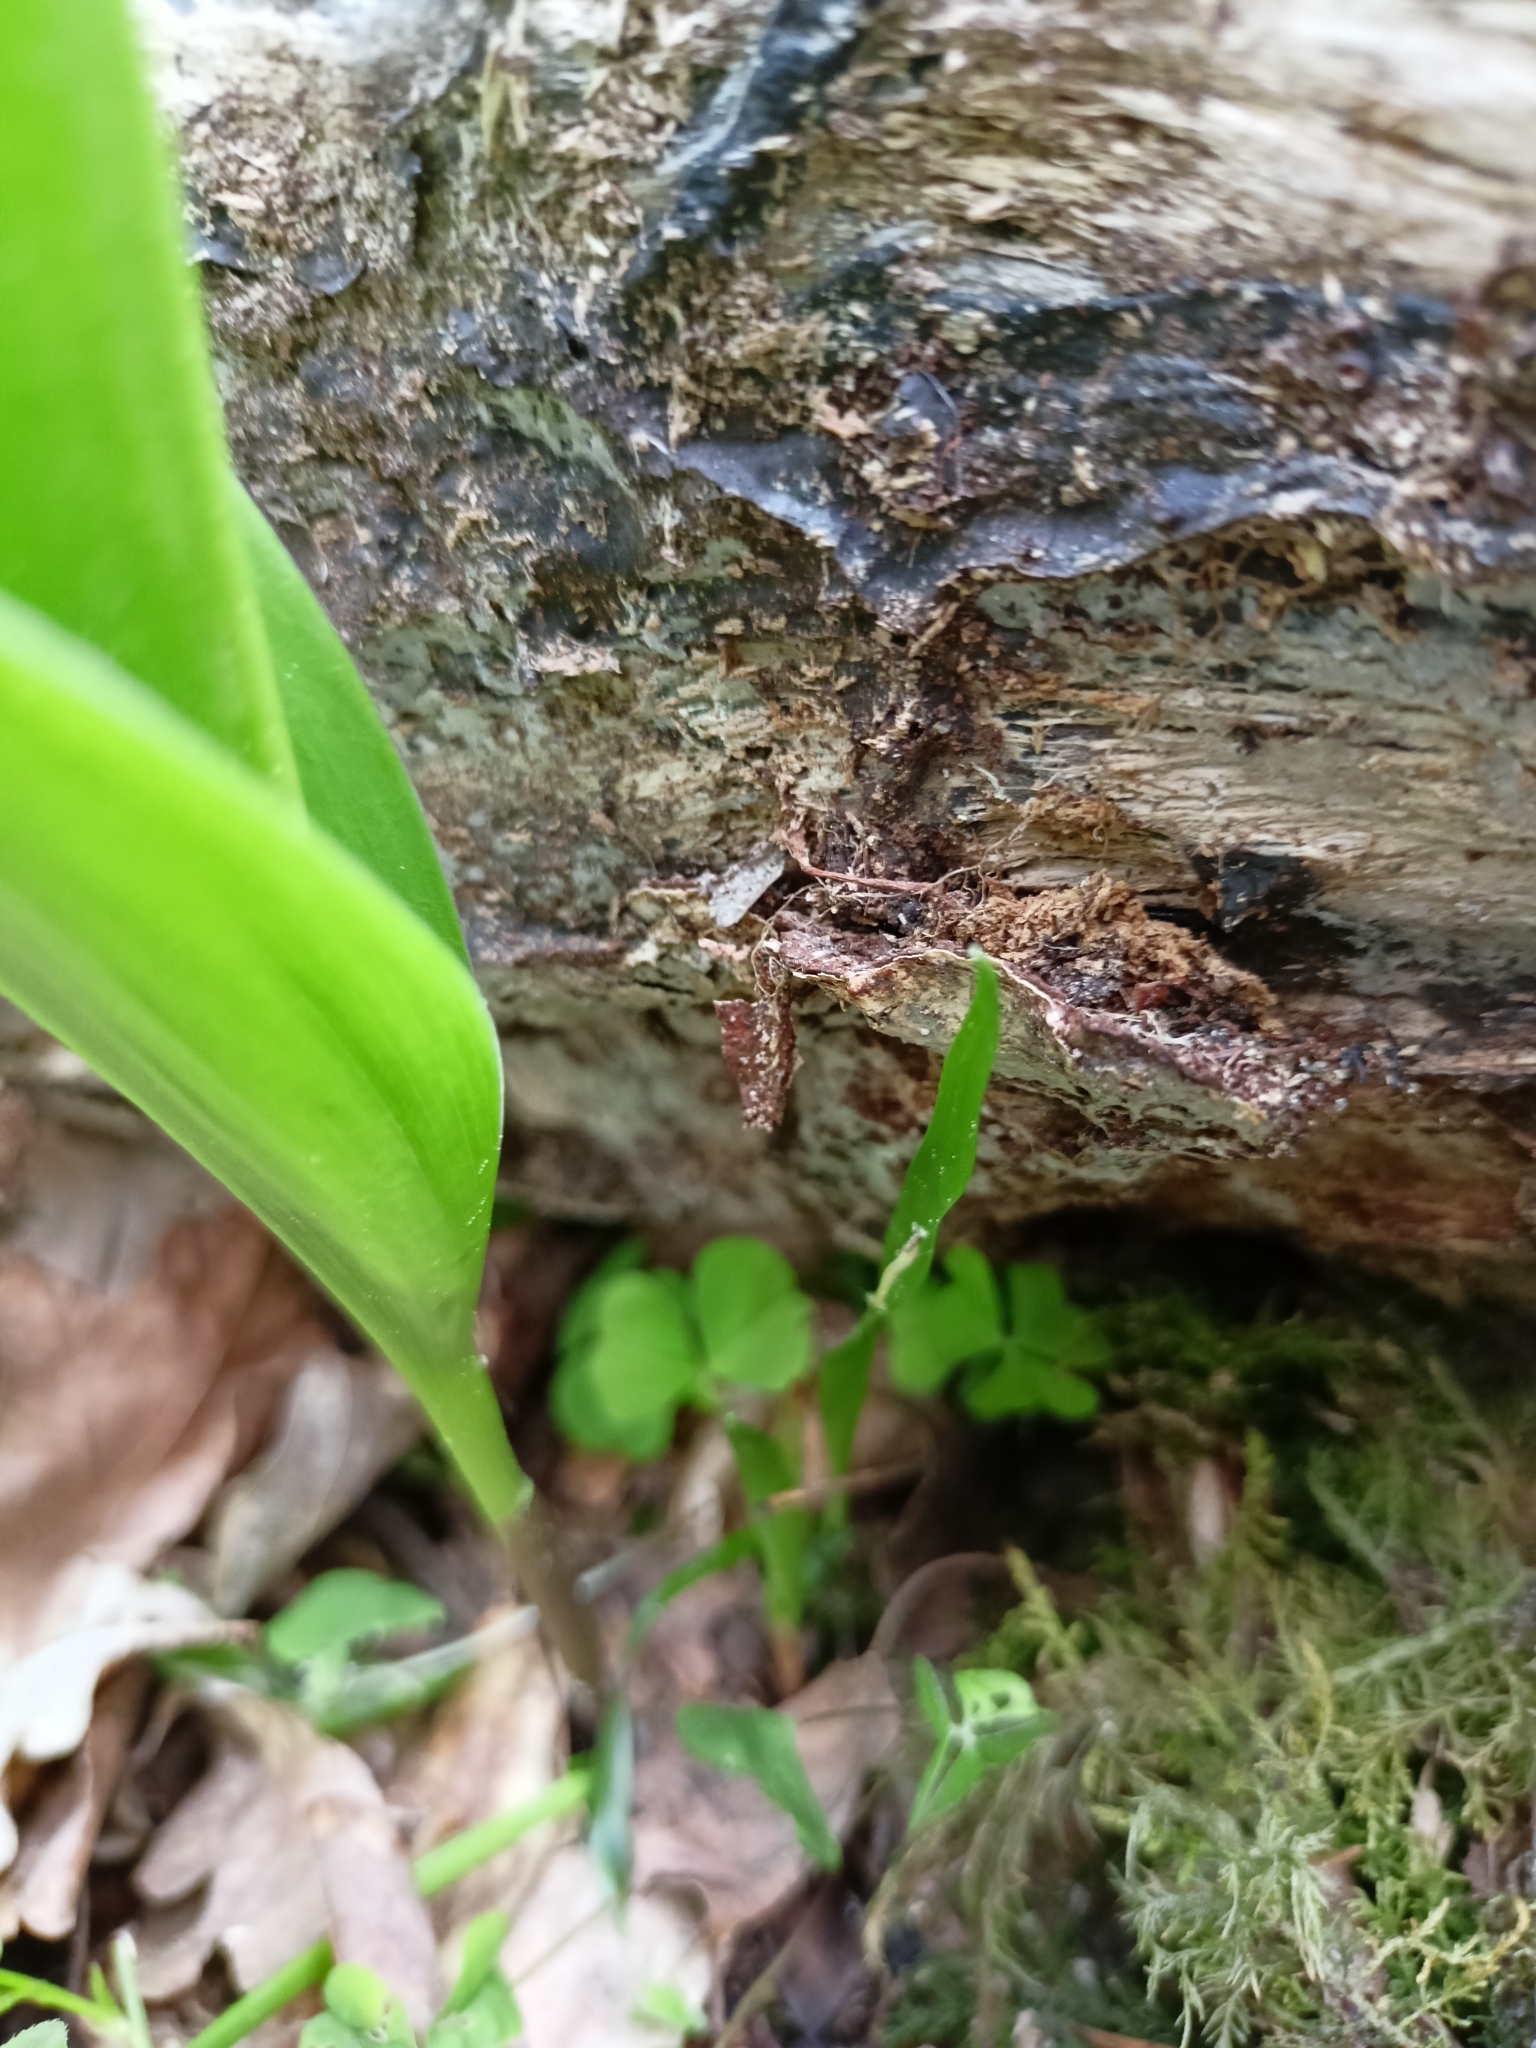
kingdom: Plantae
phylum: Tracheophyta
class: Liliopsida
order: Asparagales
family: Asparagaceae
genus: Convallaria
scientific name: Convallaria majalis
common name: Lily-of-the-valley
